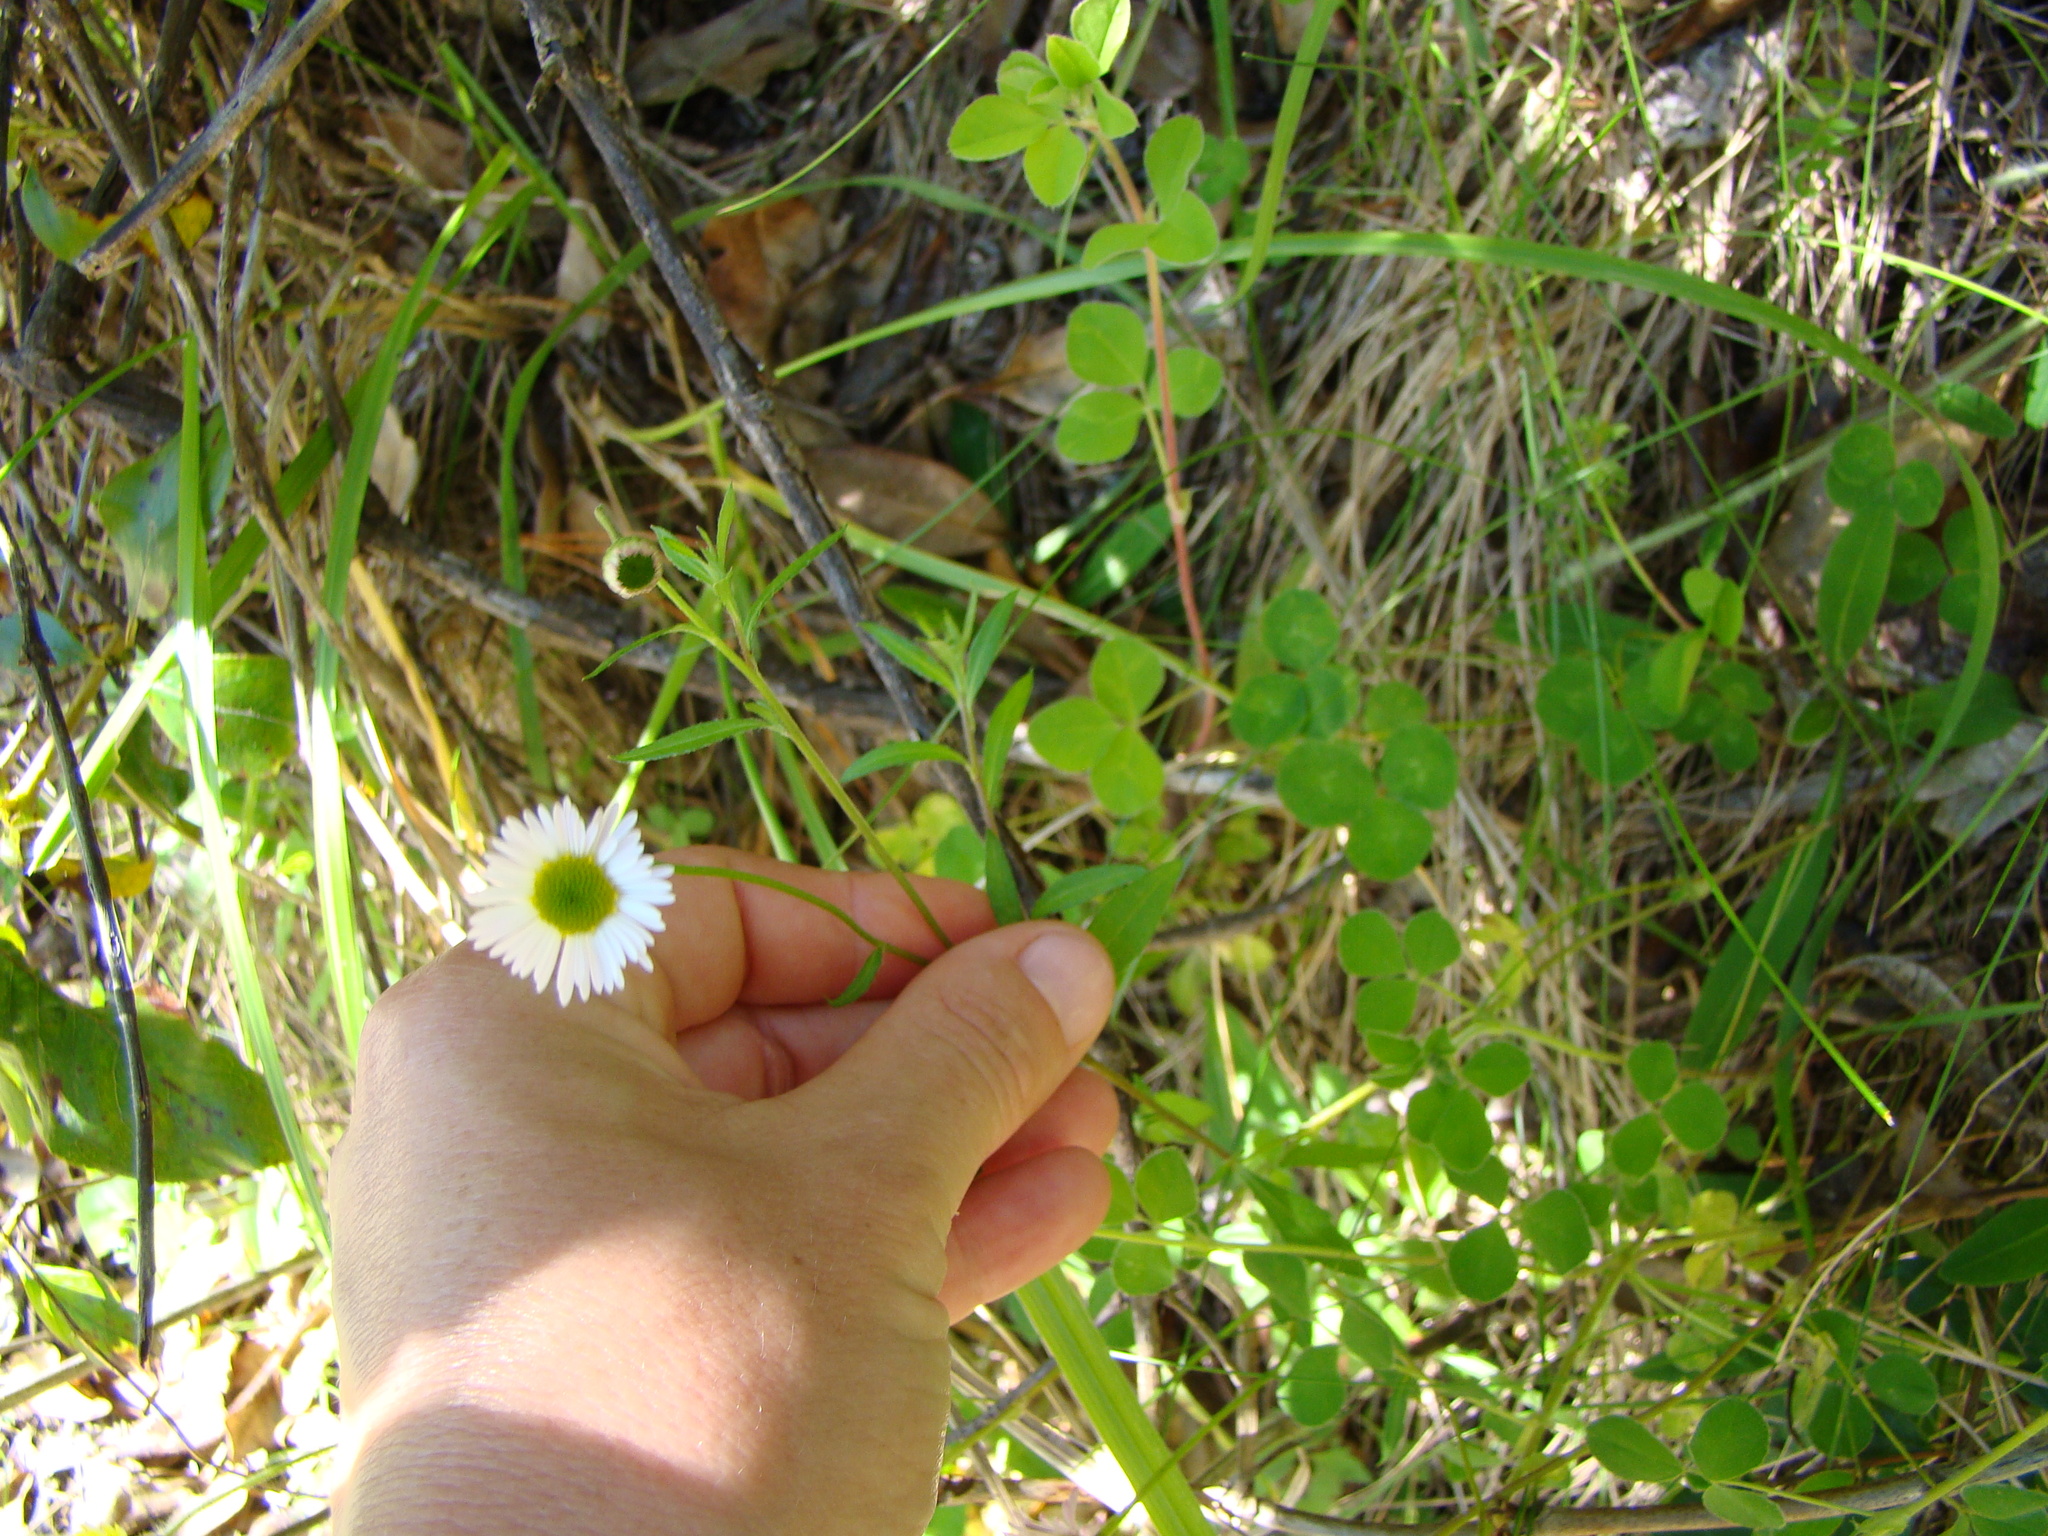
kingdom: Plantae
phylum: Tracheophyta
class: Magnoliopsida
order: Asterales
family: Asteraceae
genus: Erigeron
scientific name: Erigeron karvinskianus
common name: Mexican fleabane
